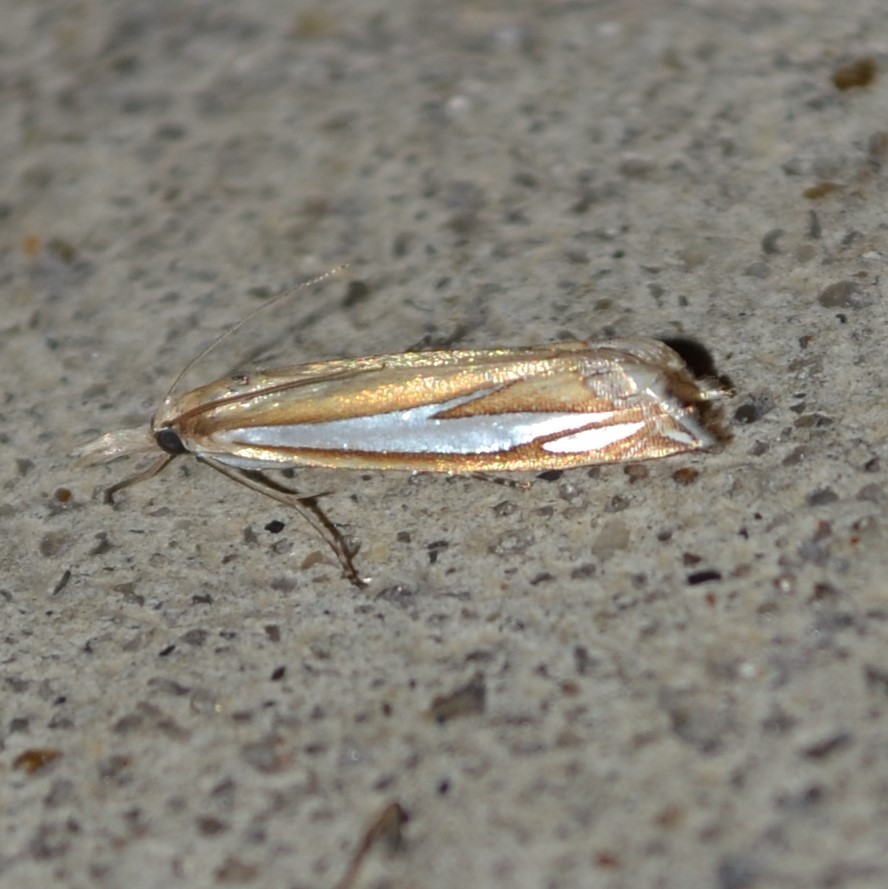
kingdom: Animalia
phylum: Arthropoda
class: Insecta
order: Lepidoptera
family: Crambidae
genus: Crambus
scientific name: Crambus satrapellus
